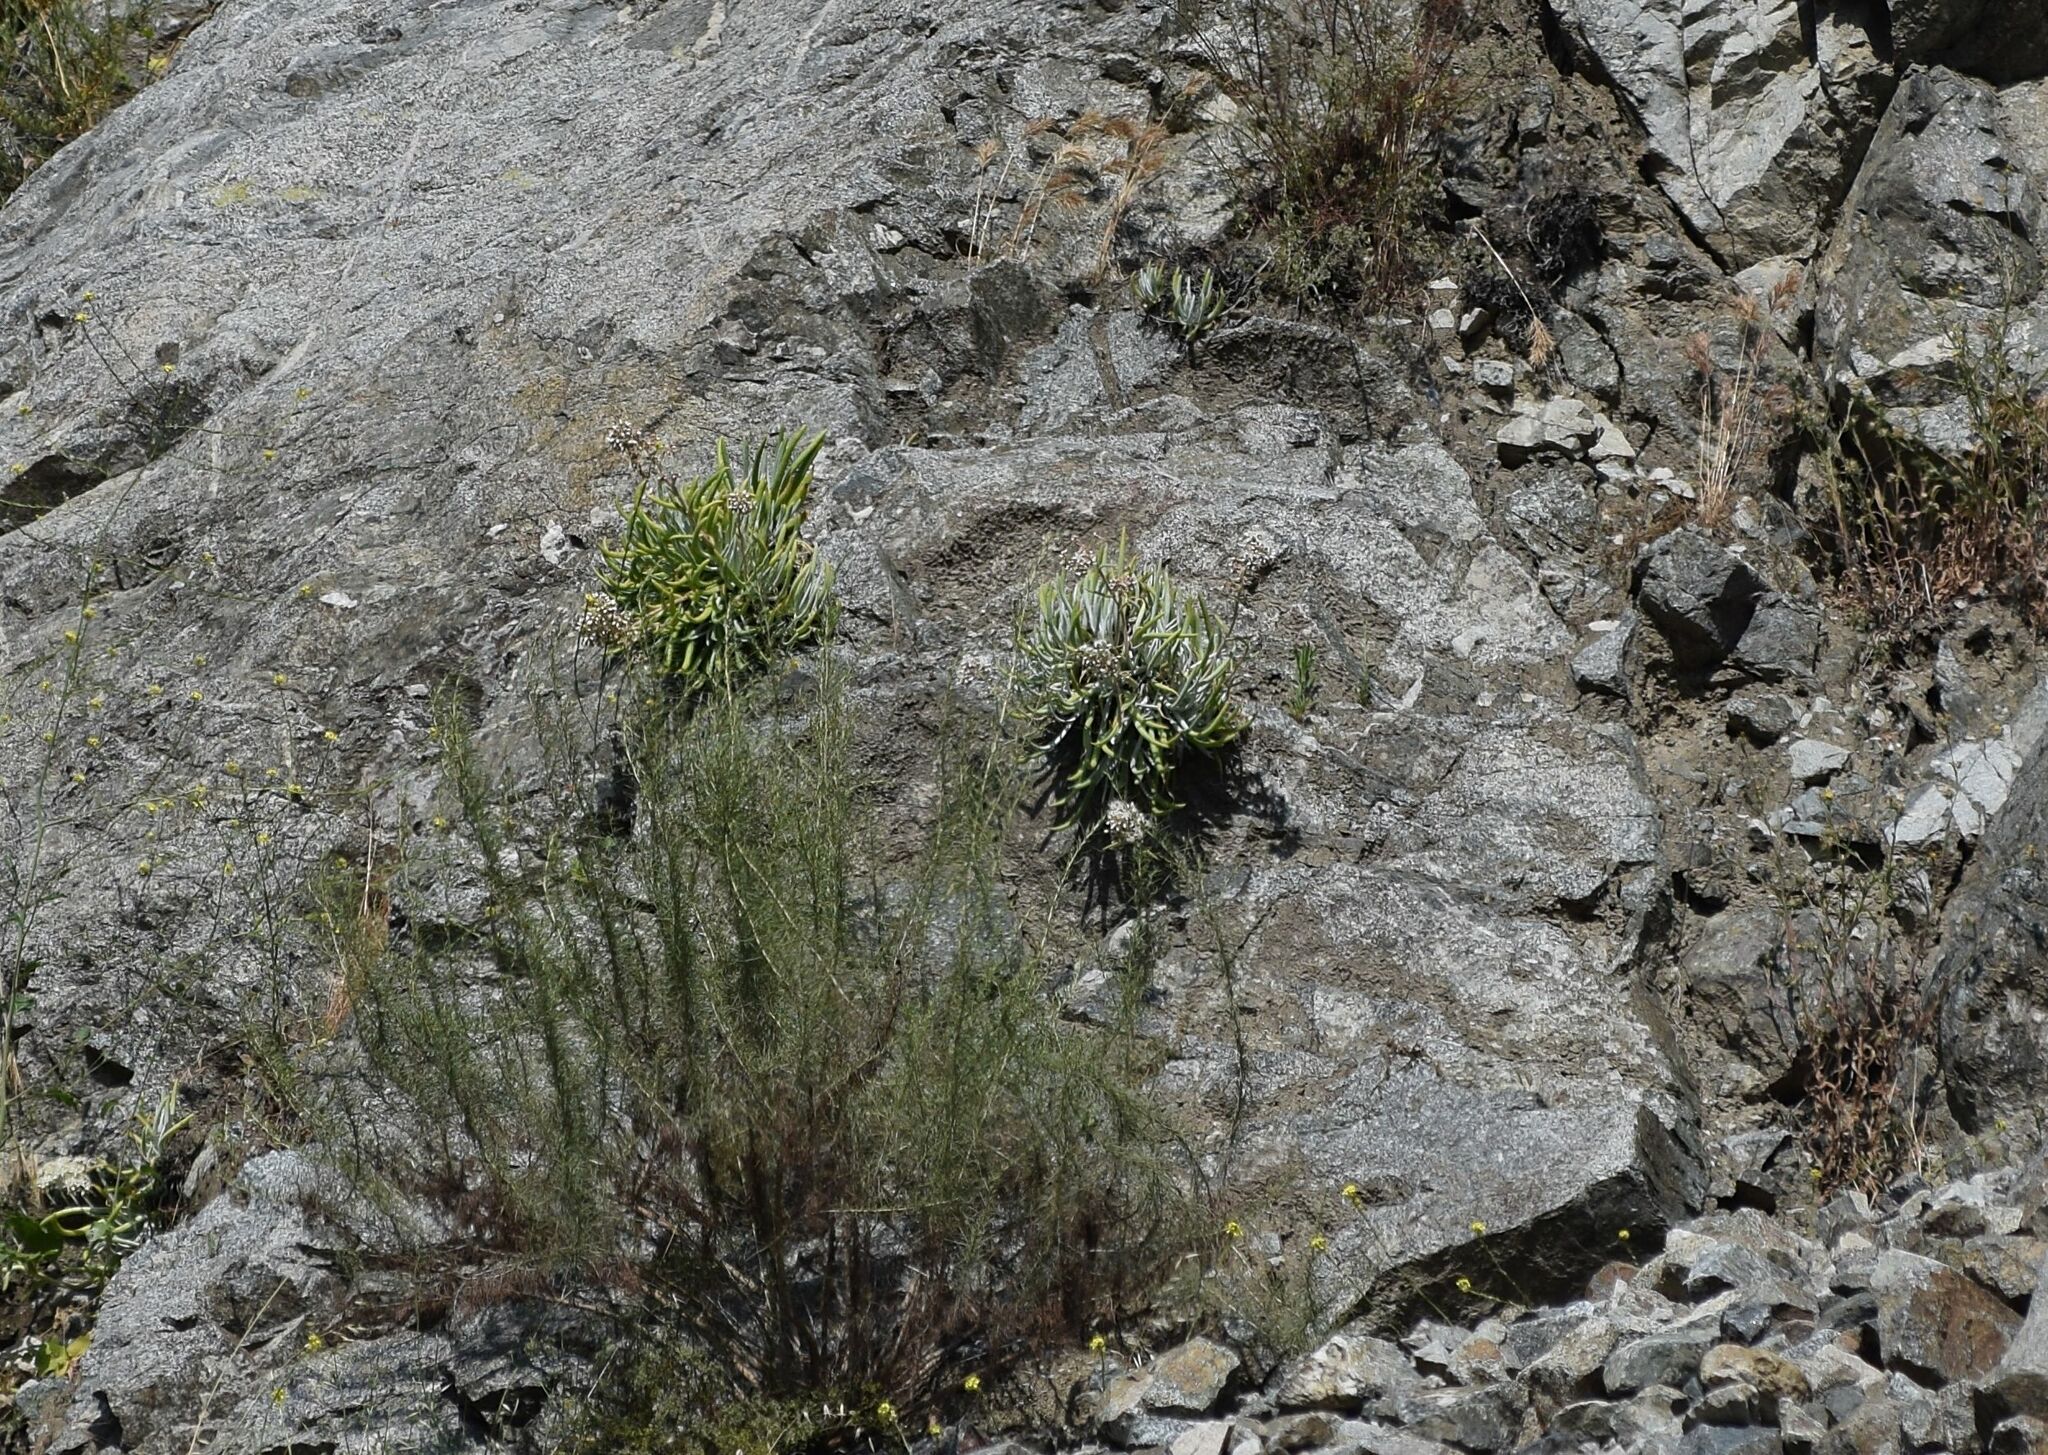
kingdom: Plantae
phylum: Tracheophyta
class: Magnoliopsida
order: Saxifragales
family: Crassulaceae
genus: Dudleya
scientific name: Dudleya densiflora
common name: San gabriel mountains dudleya
